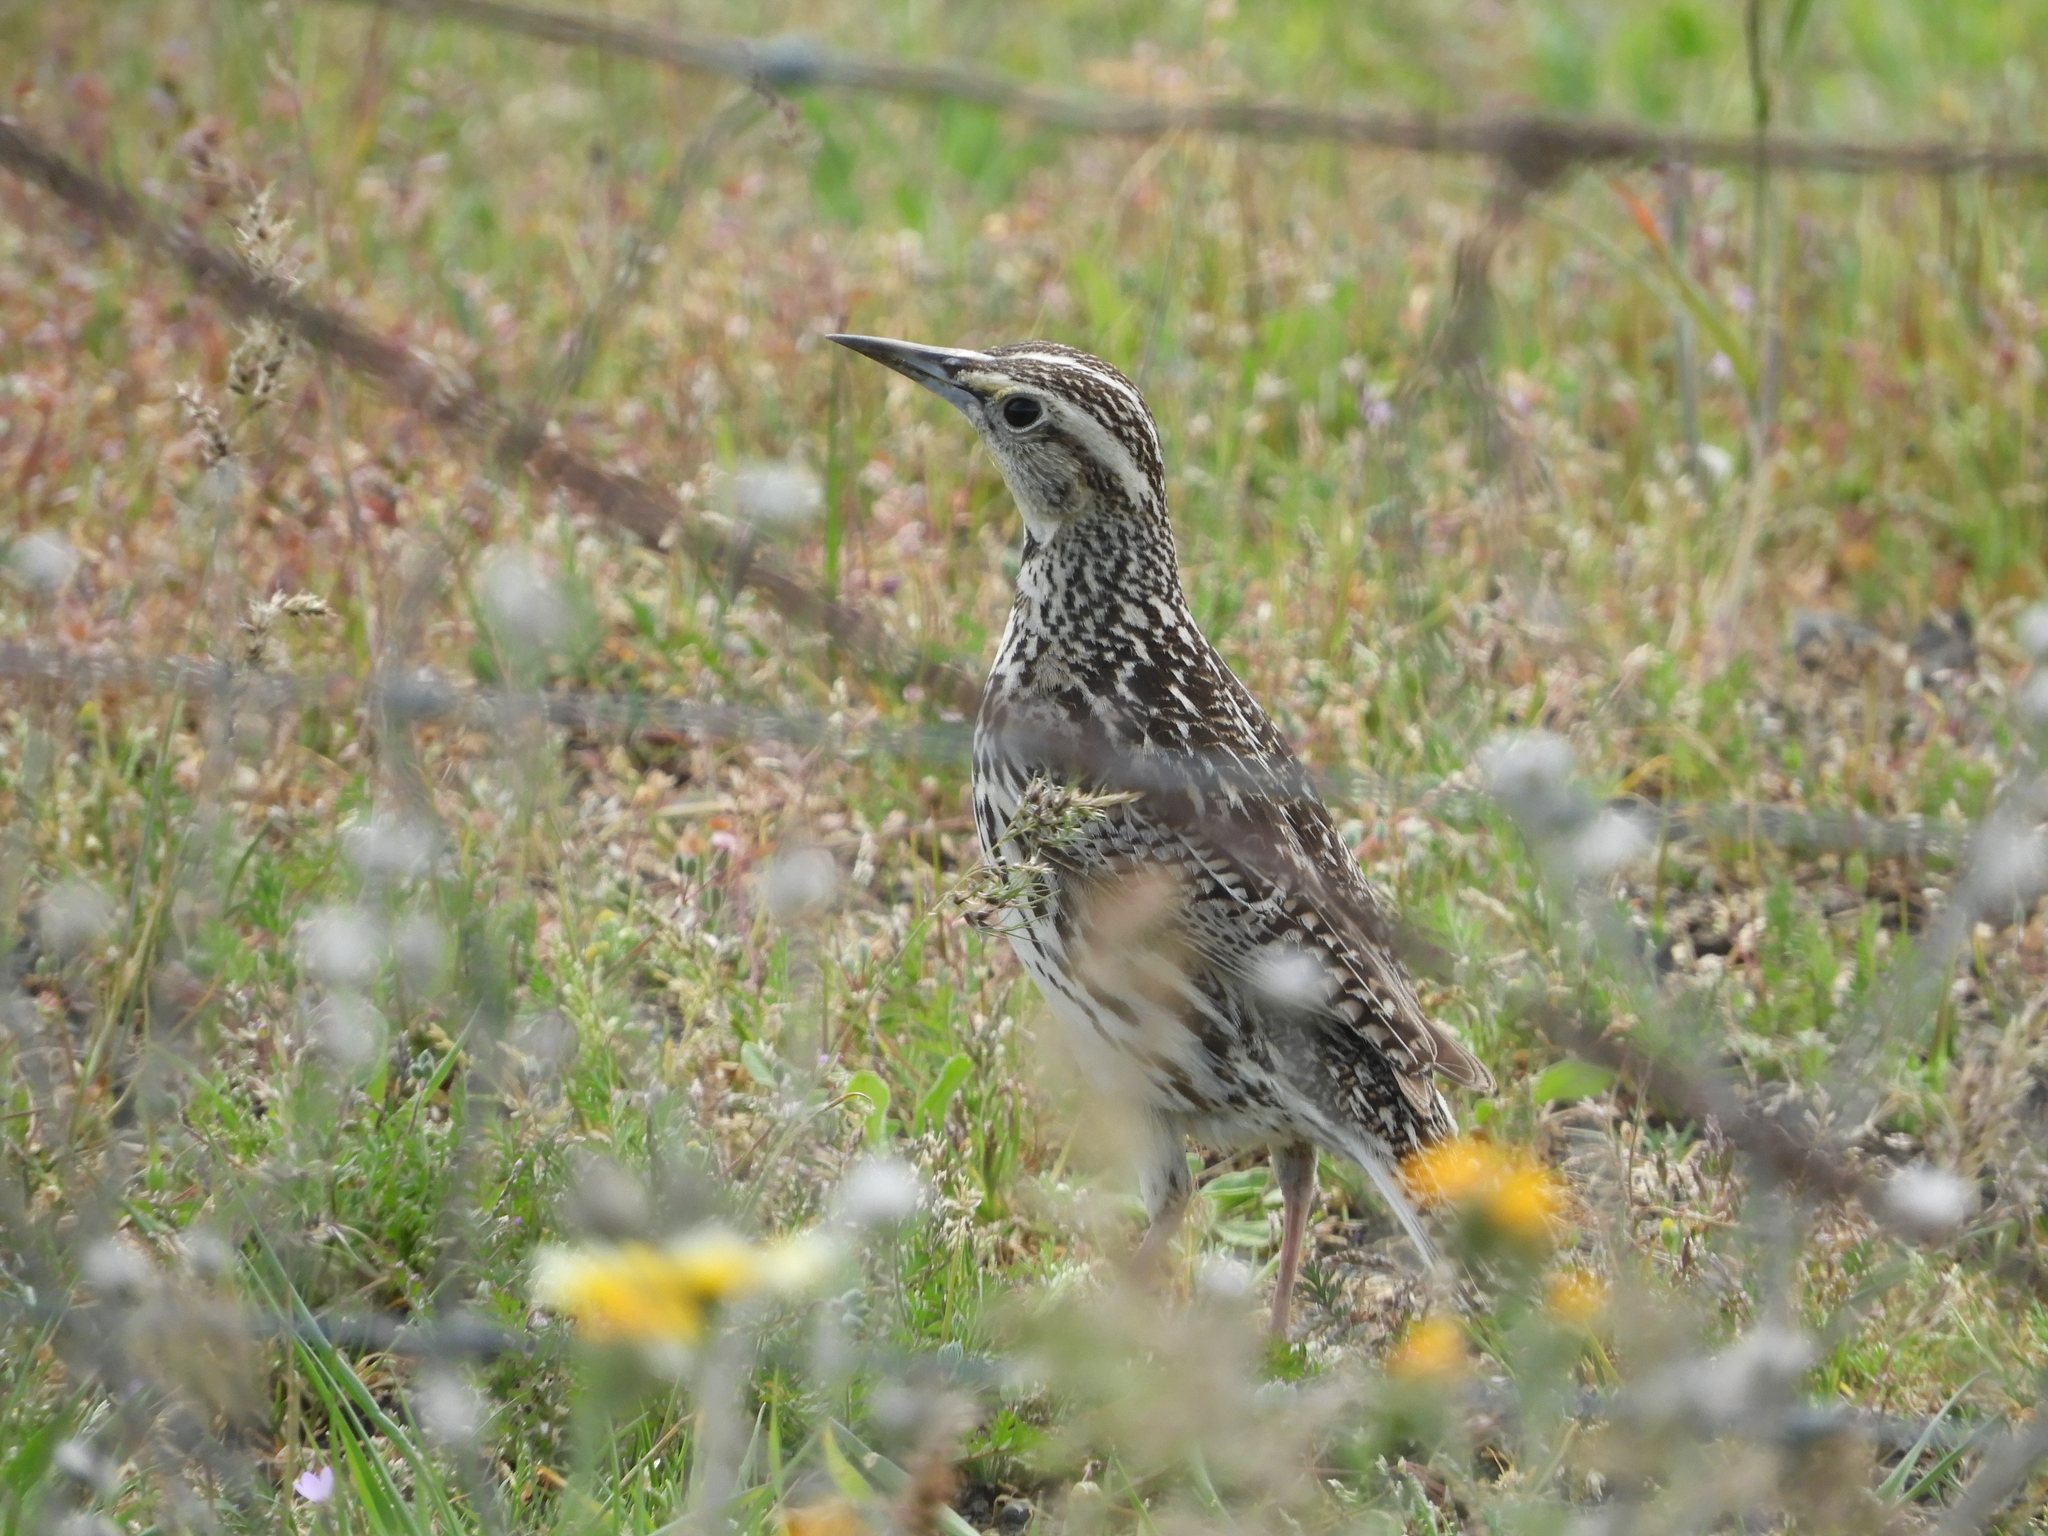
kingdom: Animalia
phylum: Chordata
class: Aves
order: Passeriformes
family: Icteridae
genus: Sturnella
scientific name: Sturnella neglecta
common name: Western meadowlark
